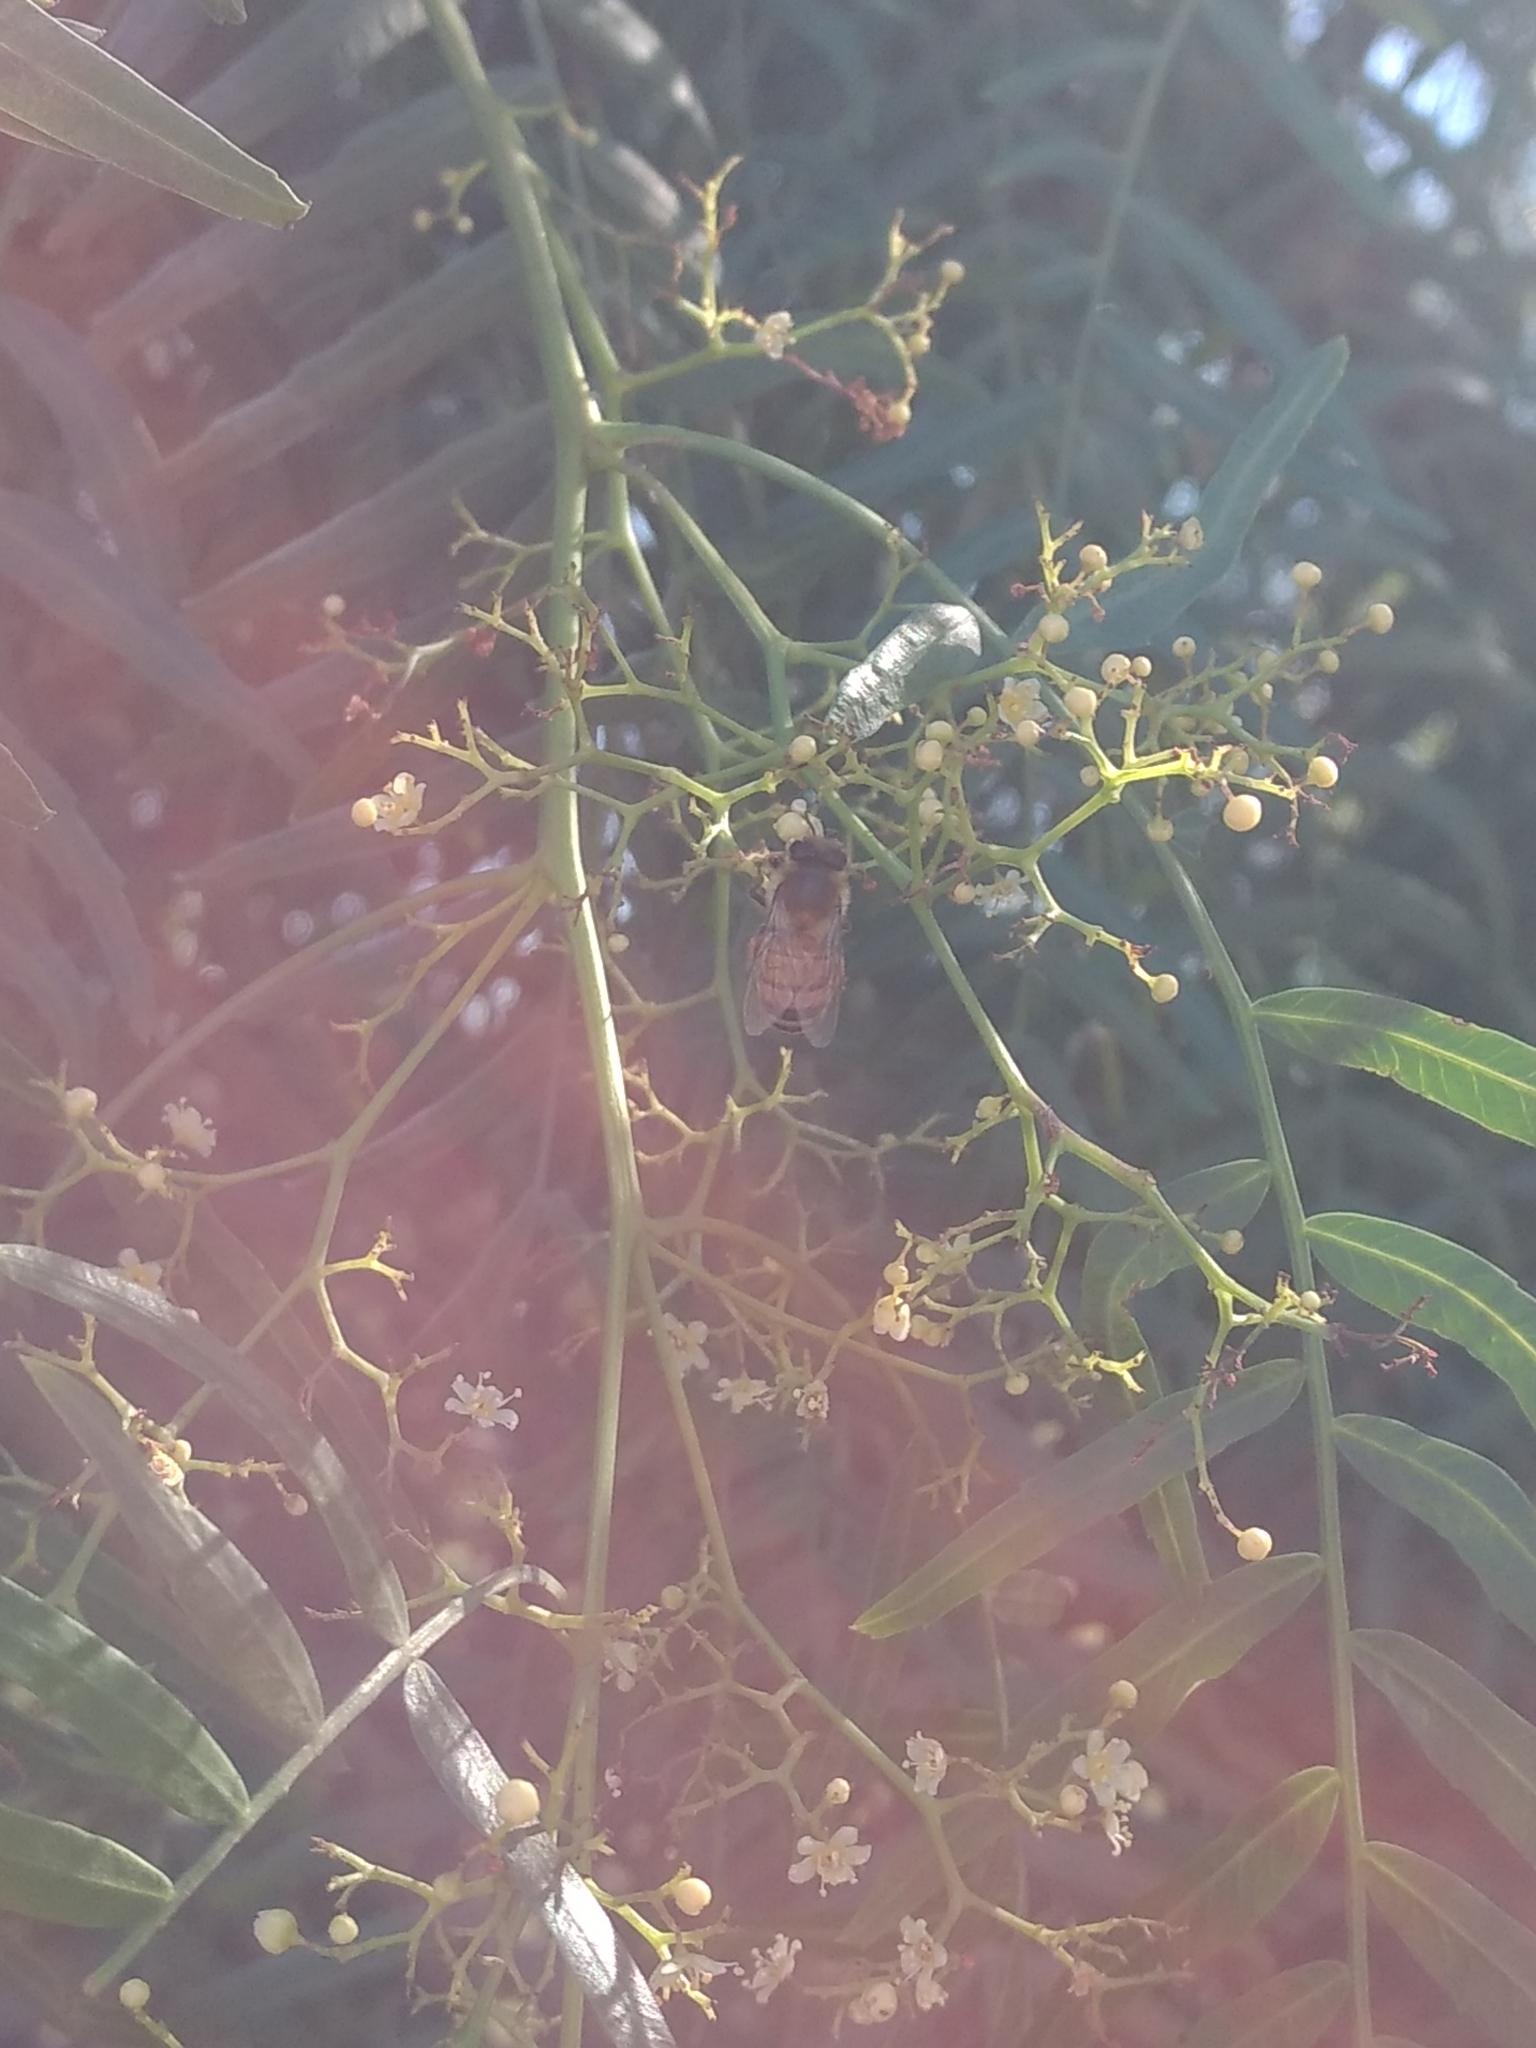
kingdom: Animalia
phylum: Arthropoda
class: Insecta
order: Hymenoptera
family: Apidae
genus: Apis
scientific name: Apis mellifera
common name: Honey bee
